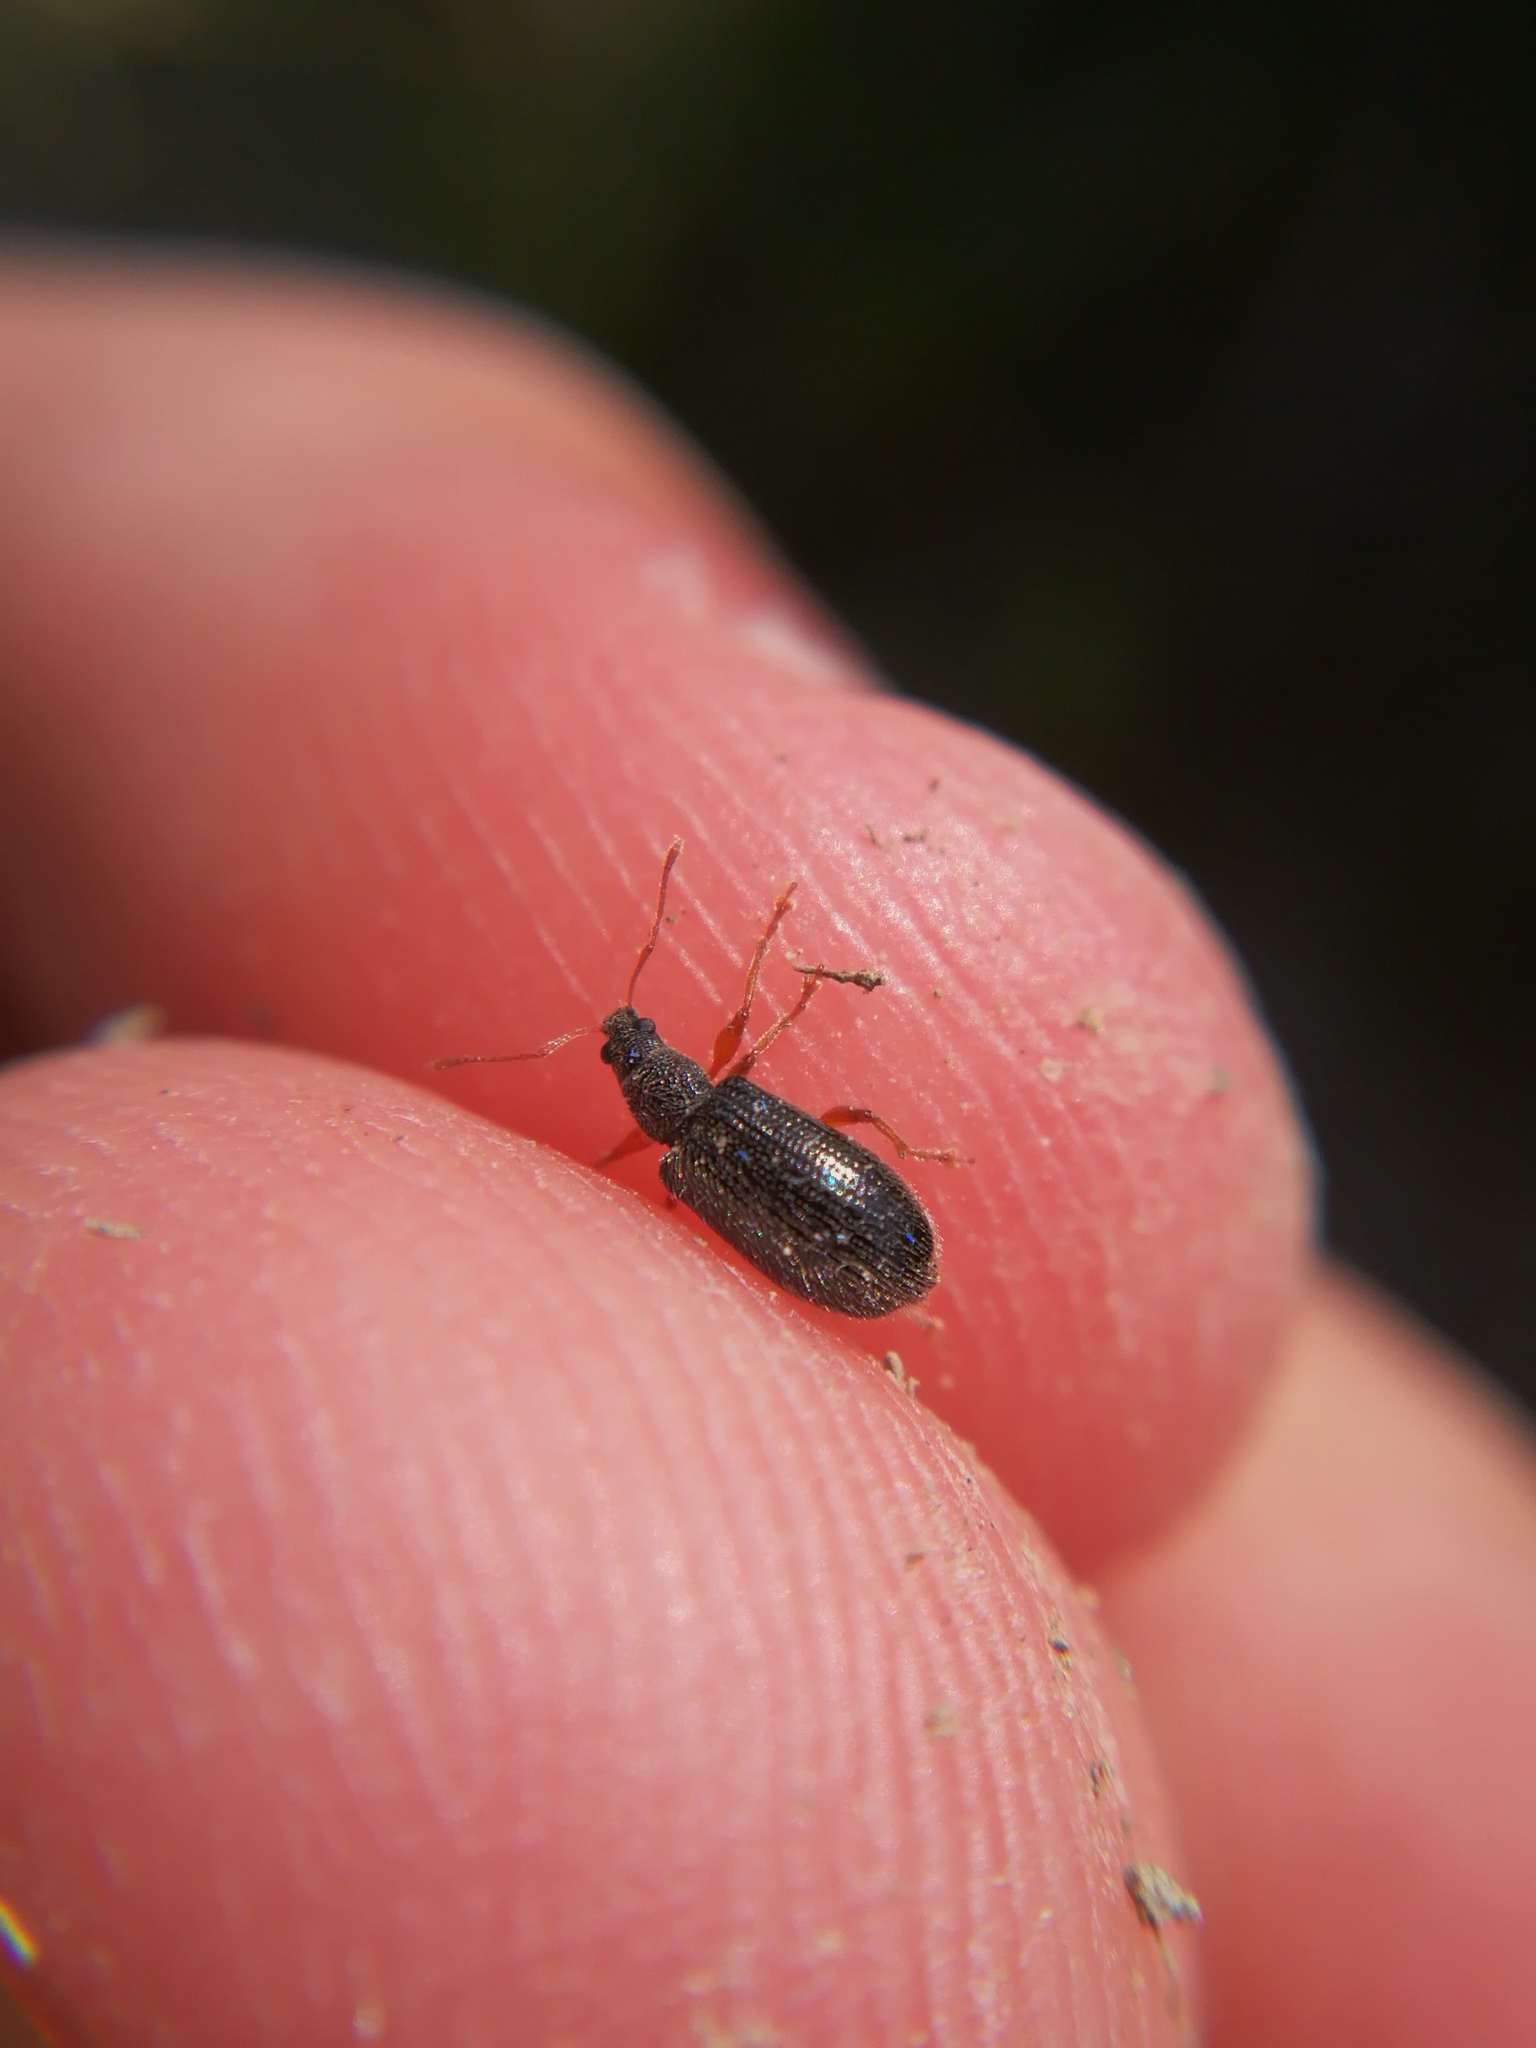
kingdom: Animalia
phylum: Arthropoda
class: Insecta
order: Coleoptera
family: Curculionidae
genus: Phyllobius
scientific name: Phyllobius oblongus
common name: Brown leaf weevil
